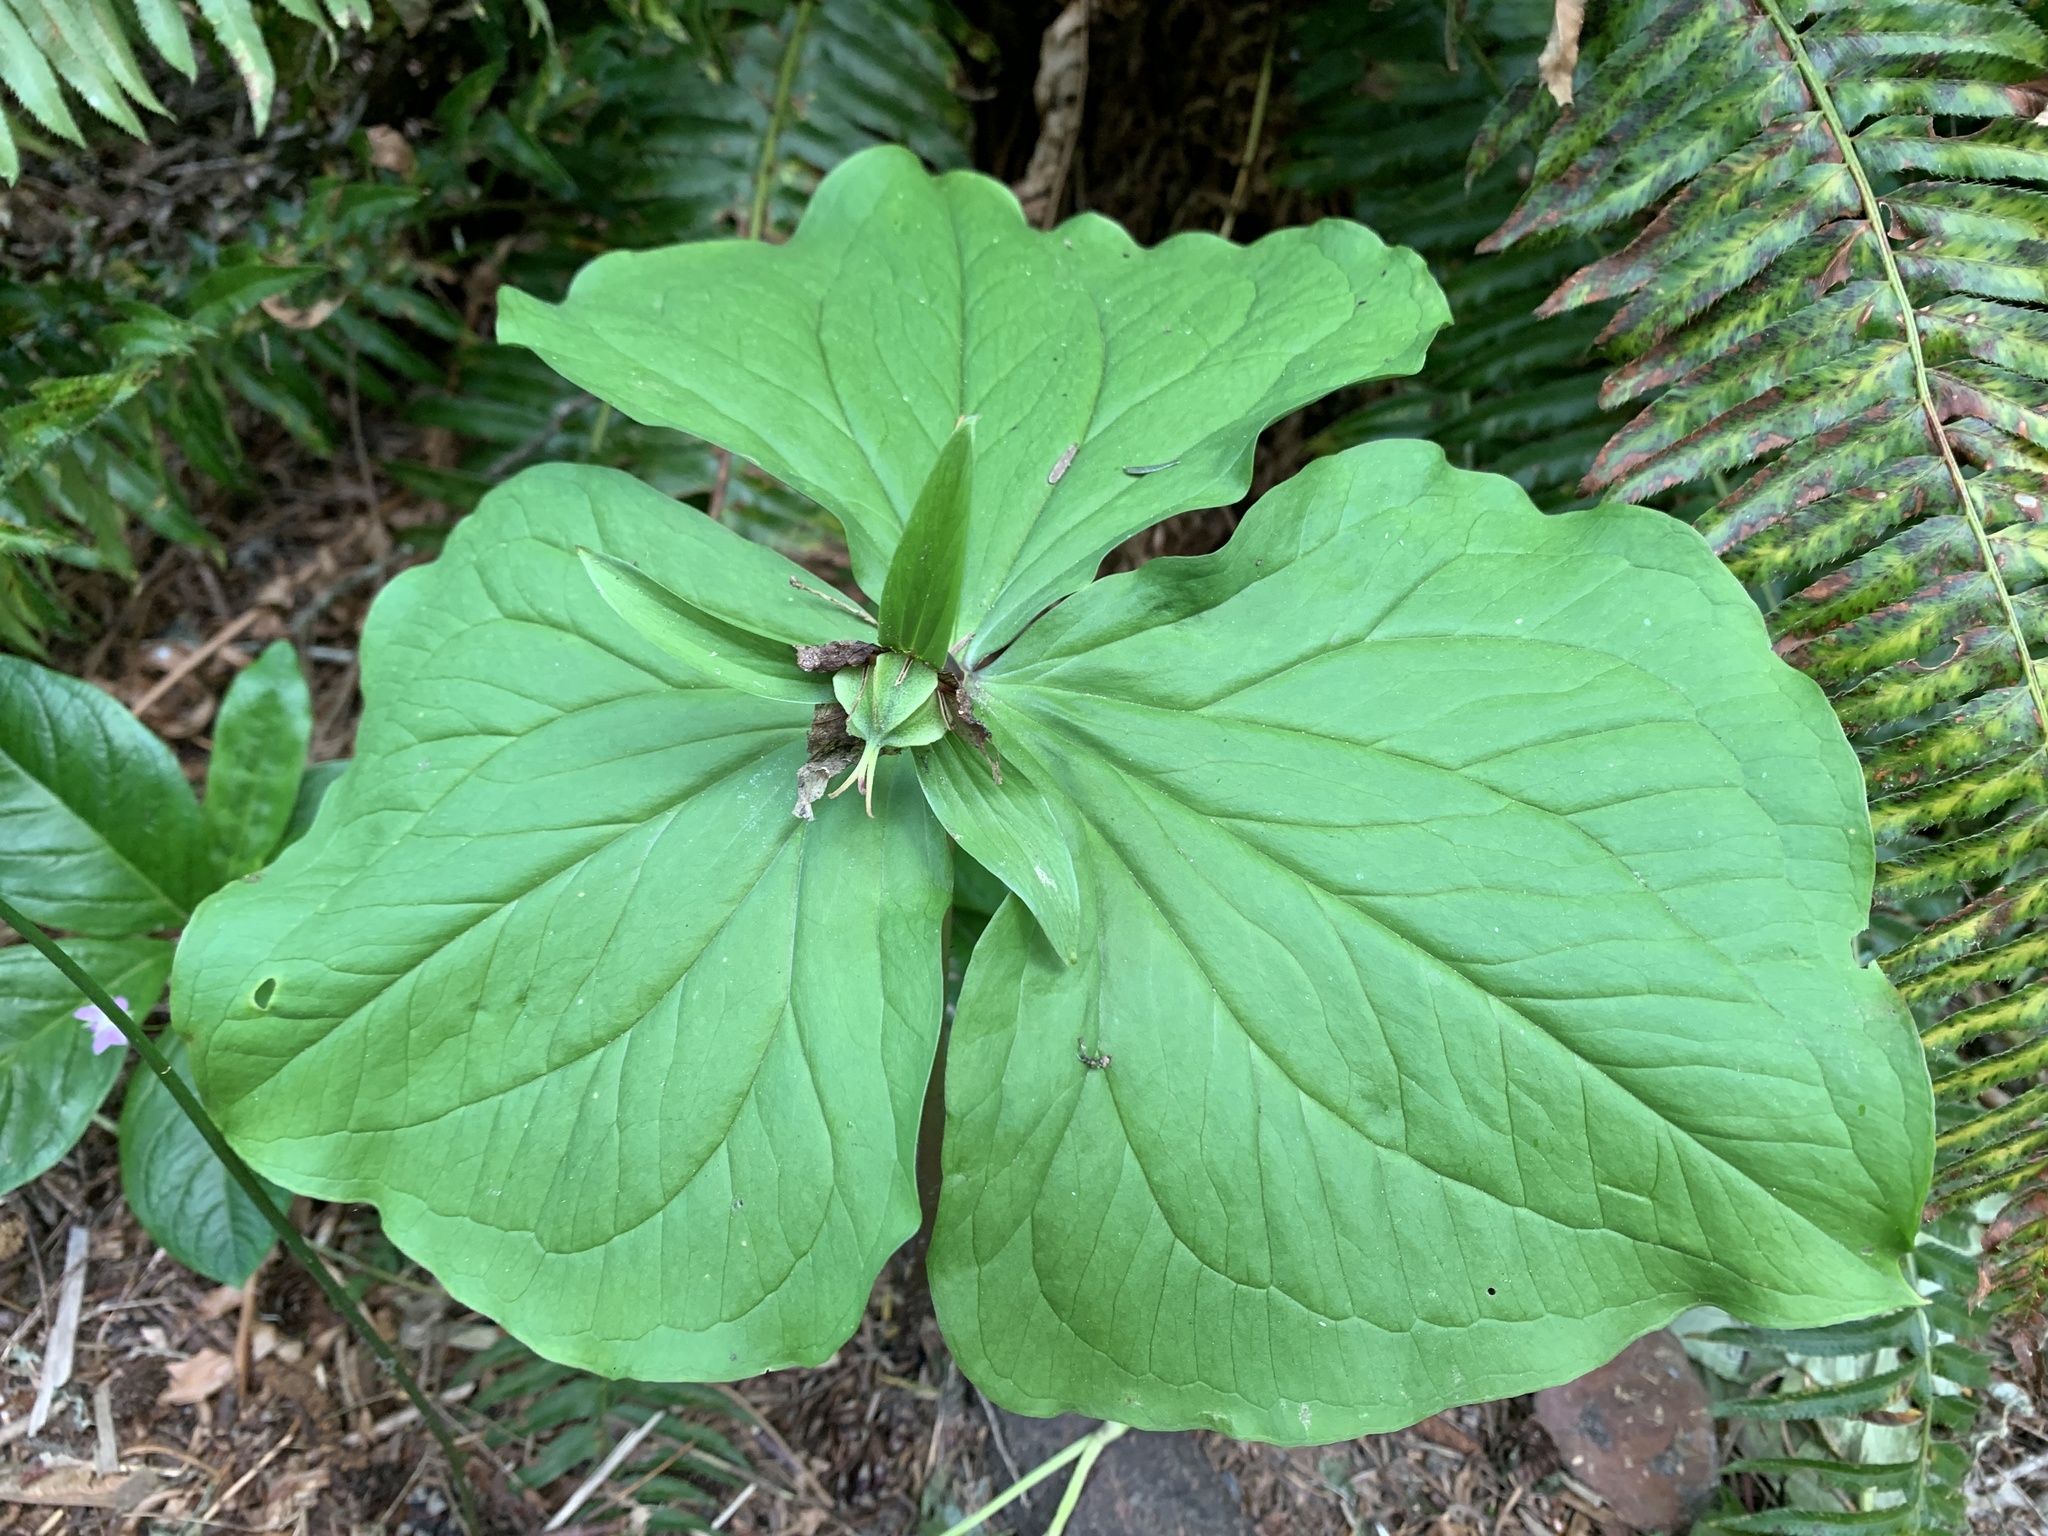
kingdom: Plantae
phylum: Tracheophyta
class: Liliopsida
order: Liliales
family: Melanthiaceae
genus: Trillium
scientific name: Trillium ovatum
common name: Pacific trillium
